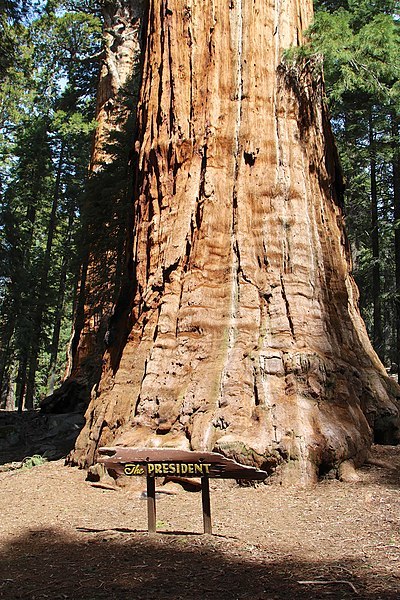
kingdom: Plantae
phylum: Tracheophyta
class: Pinopsida
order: Pinales
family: Cupressaceae
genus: Sequoiadendron
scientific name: Sequoiadendron giganteum
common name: Wellingtonia
